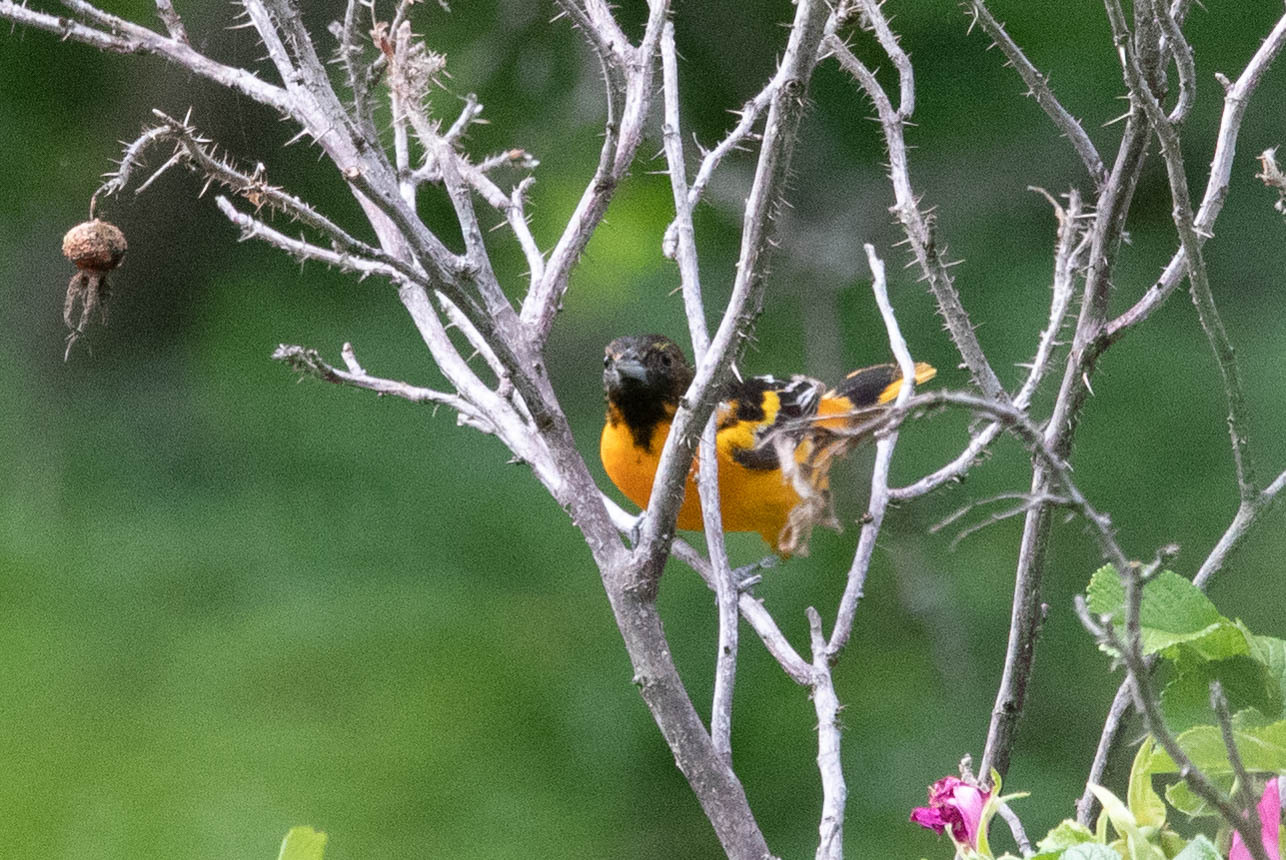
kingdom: Animalia
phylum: Chordata
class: Aves
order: Passeriformes
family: Icteridae
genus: Icterus
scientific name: Icterus galbula
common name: Baltimore oriole
